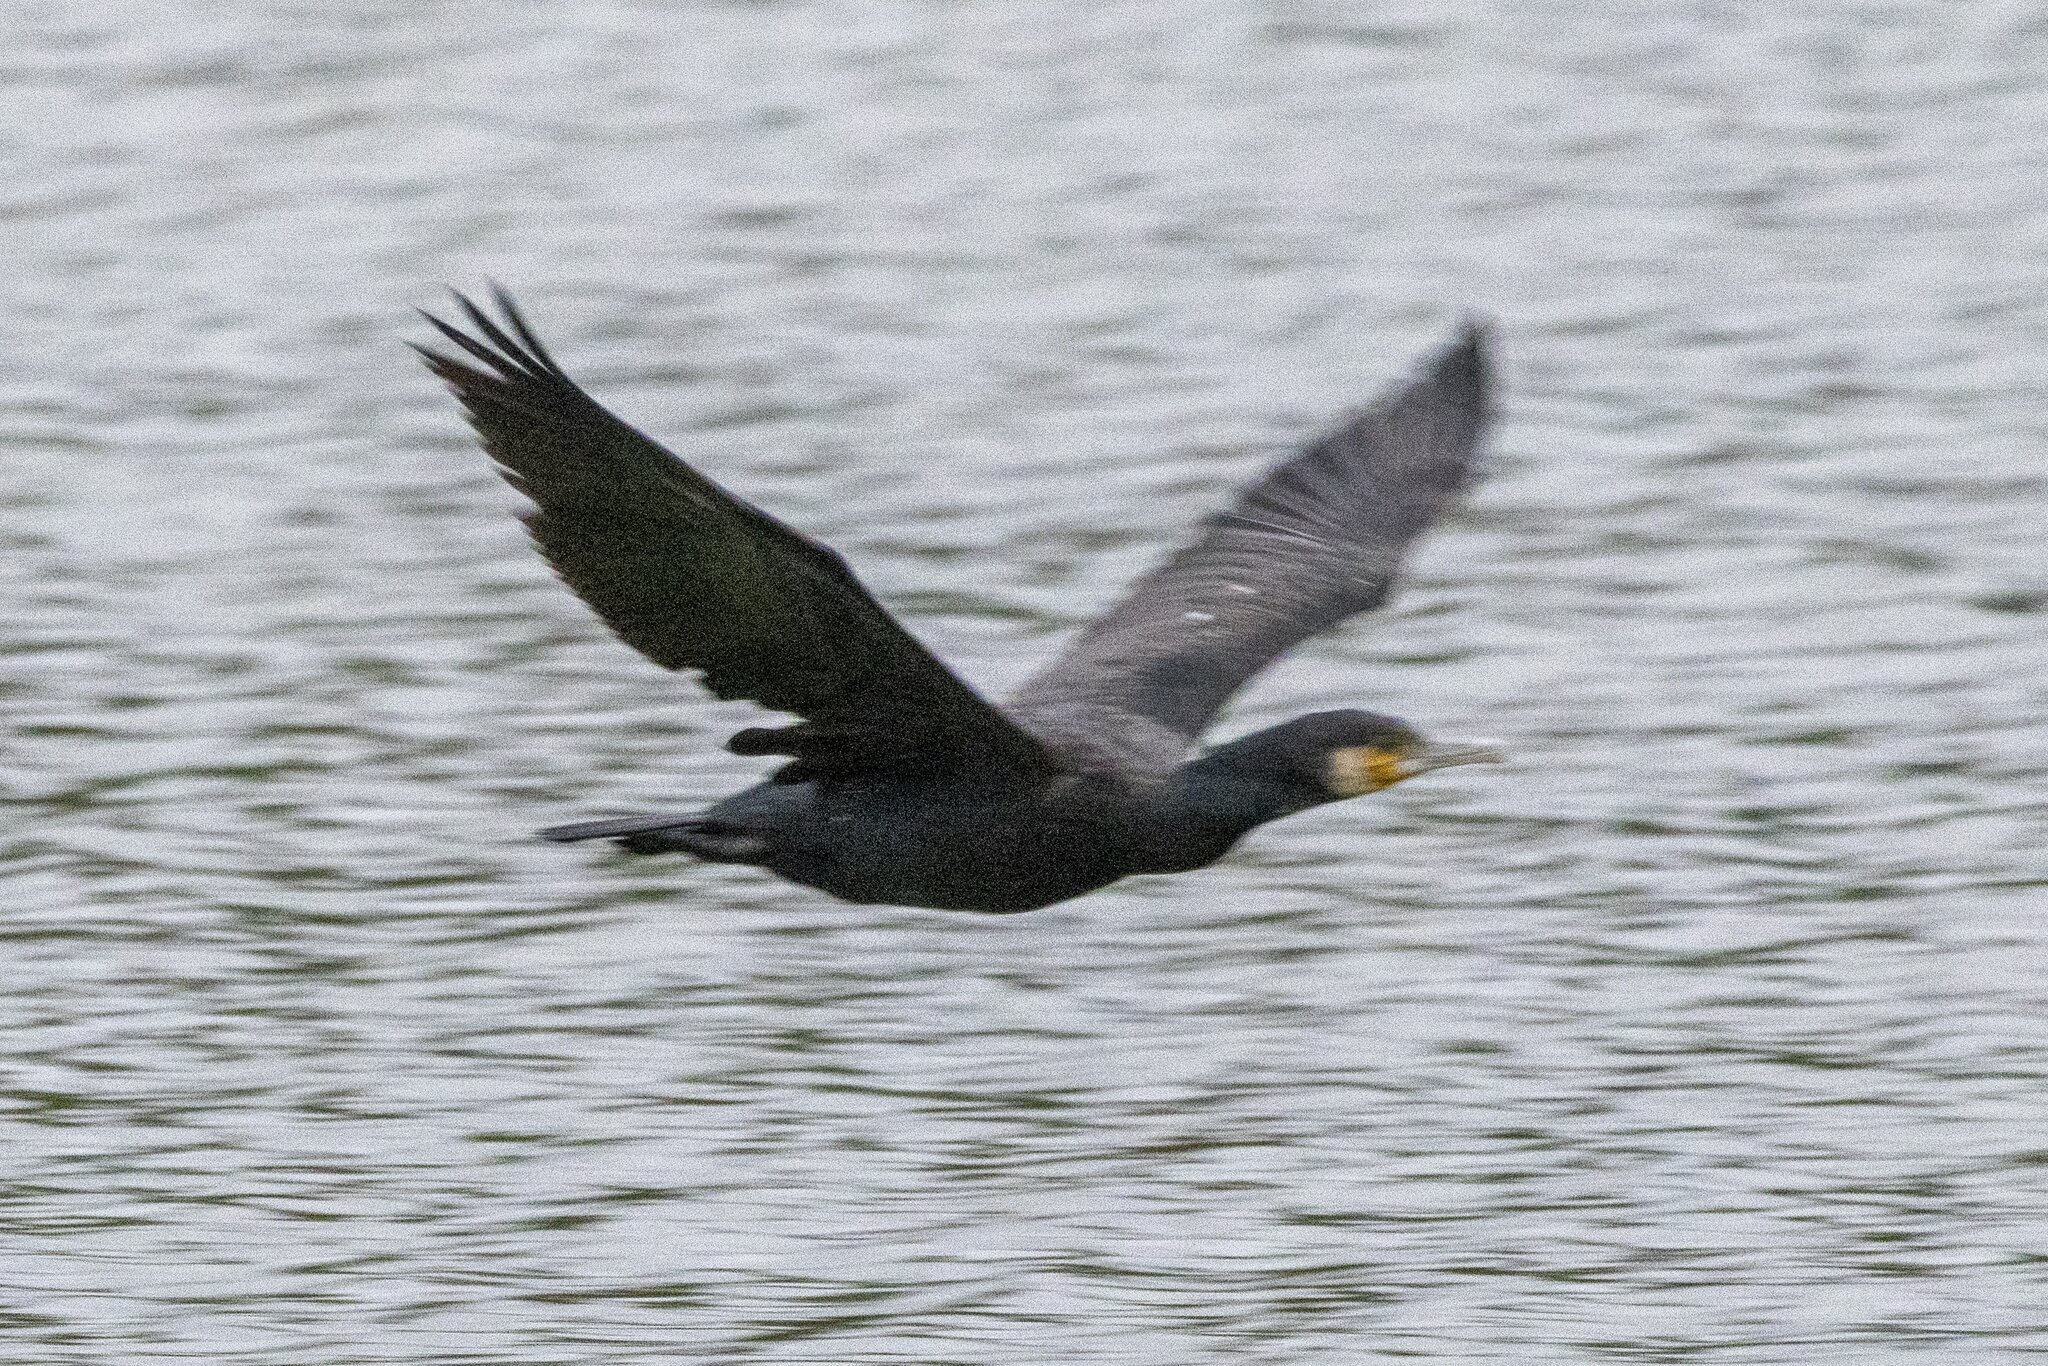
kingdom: Animalia
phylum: Chordata
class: Aves
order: Suliformes
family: Phalacrocoracidae
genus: Phalacrocorax
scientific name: Phalacrocorax carbo
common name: Great cormorant
